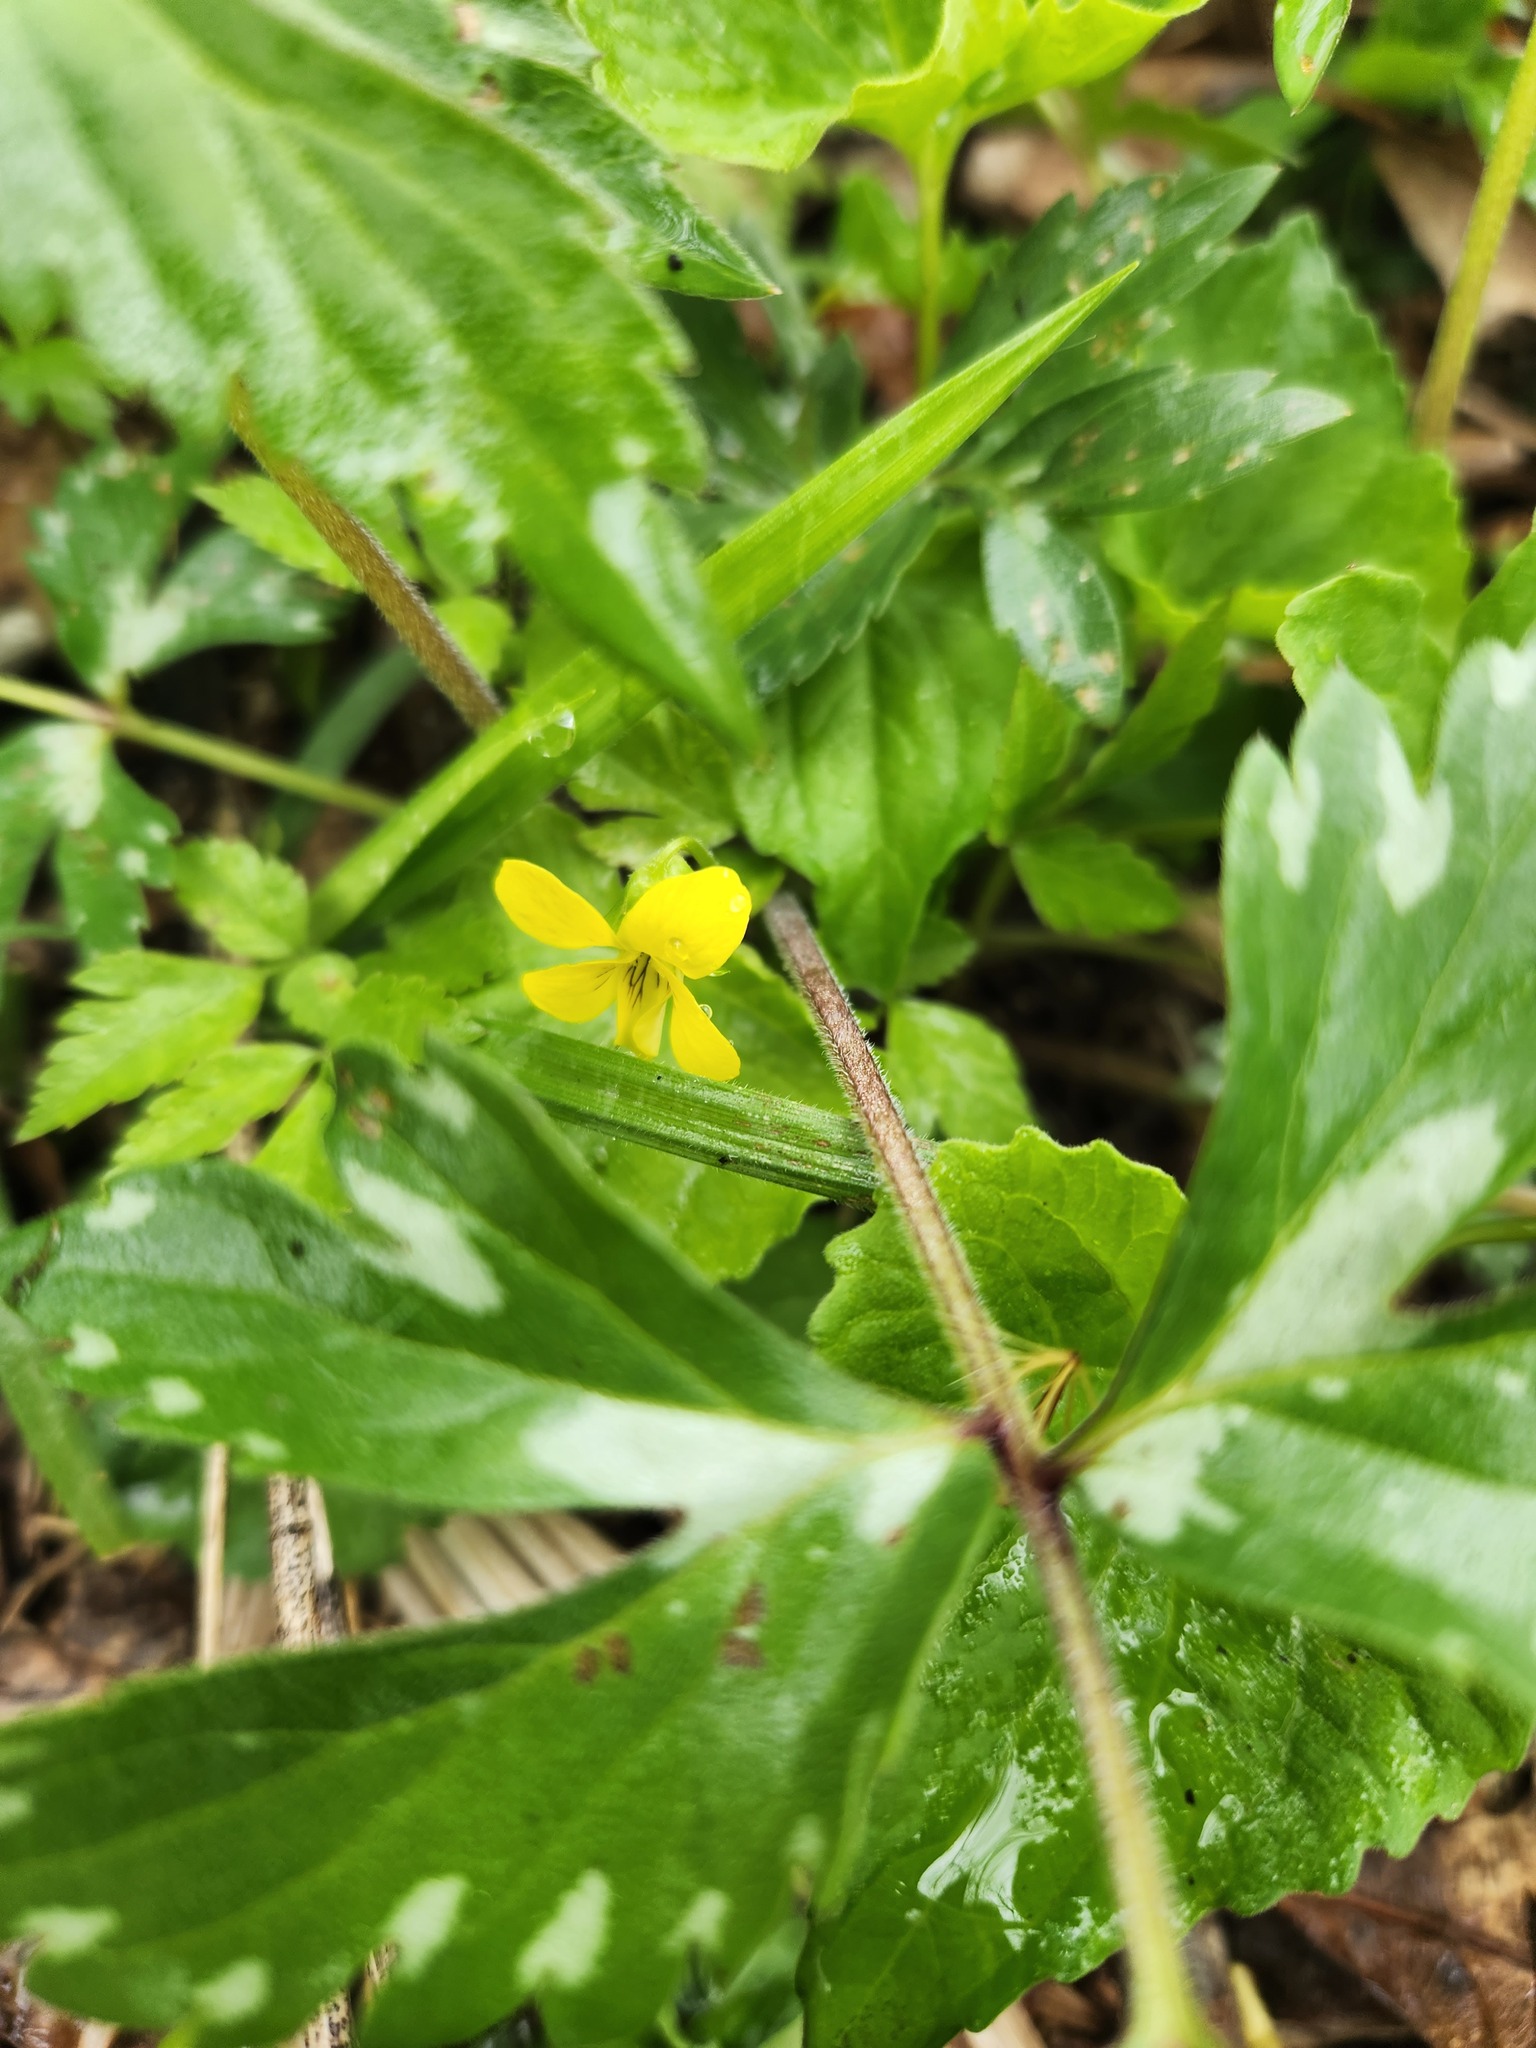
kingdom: Plantae
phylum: Tracheophyta
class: Magnoliopsida
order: Malpighiales
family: Violaceae
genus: Viola
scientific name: Viola eriocarpa
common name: Smooth yellow violet
